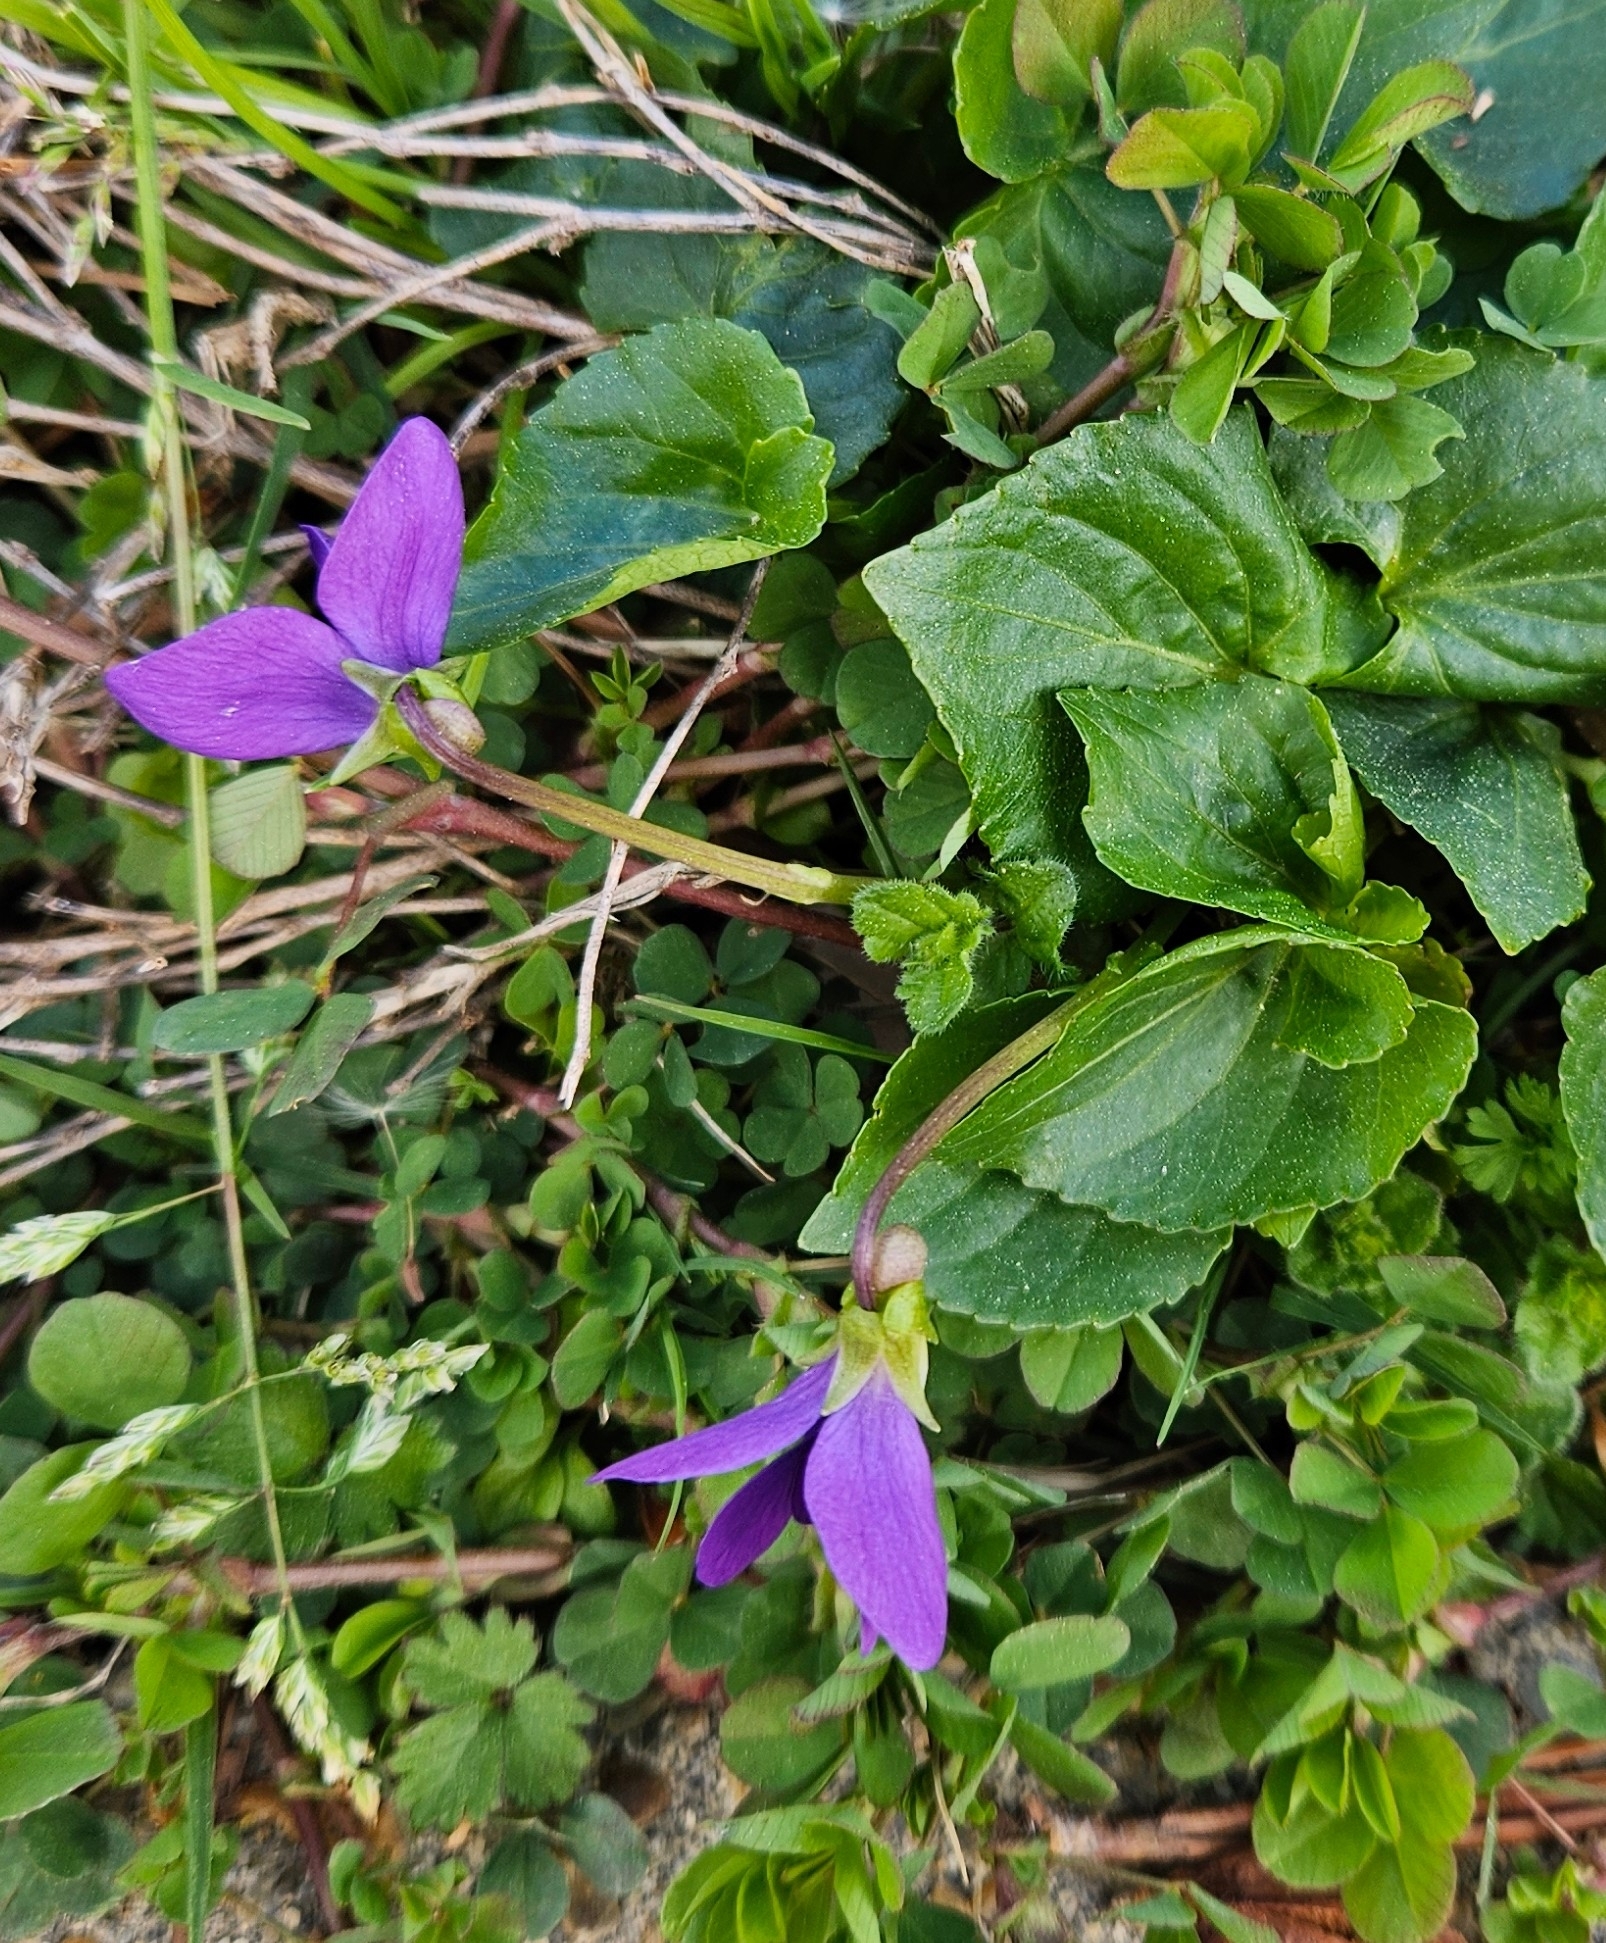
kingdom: Plantae
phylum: Tracheophyta
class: Magnoliopsida
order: Malpighiales
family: Violaceae
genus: Viola
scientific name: Viola sororia
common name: Dooryard violet
